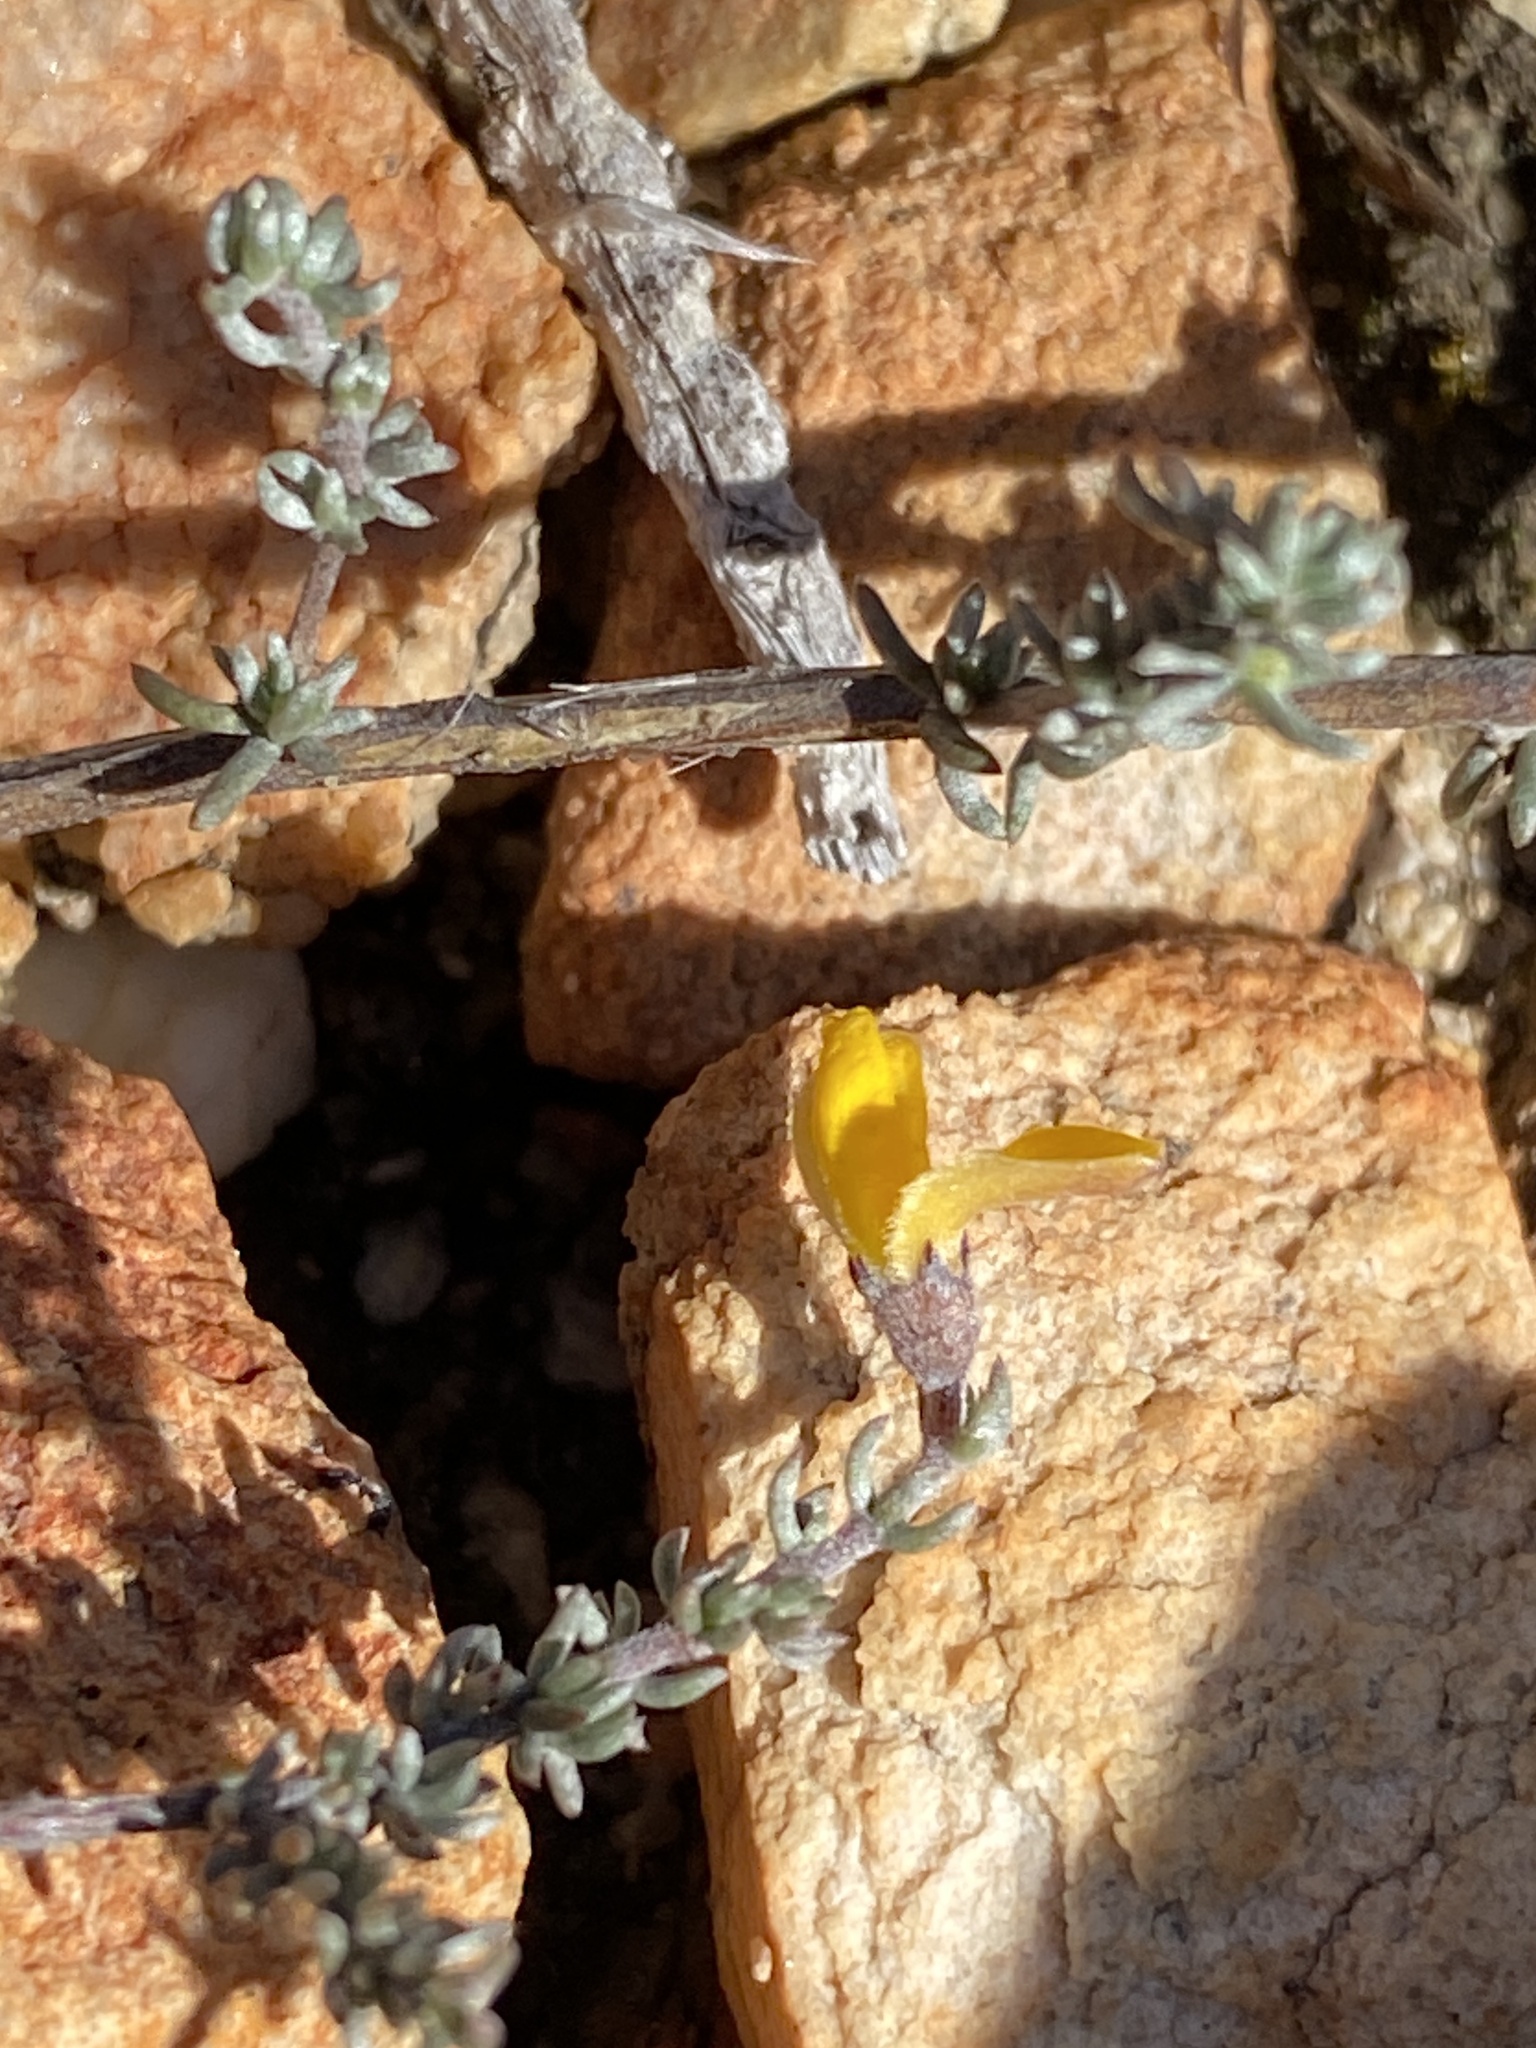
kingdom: Plantae
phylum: Tracheophyta
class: Magnoliopsida
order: Fabales
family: Fabaceae
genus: Aspalathus
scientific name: Aspalathus rubens
